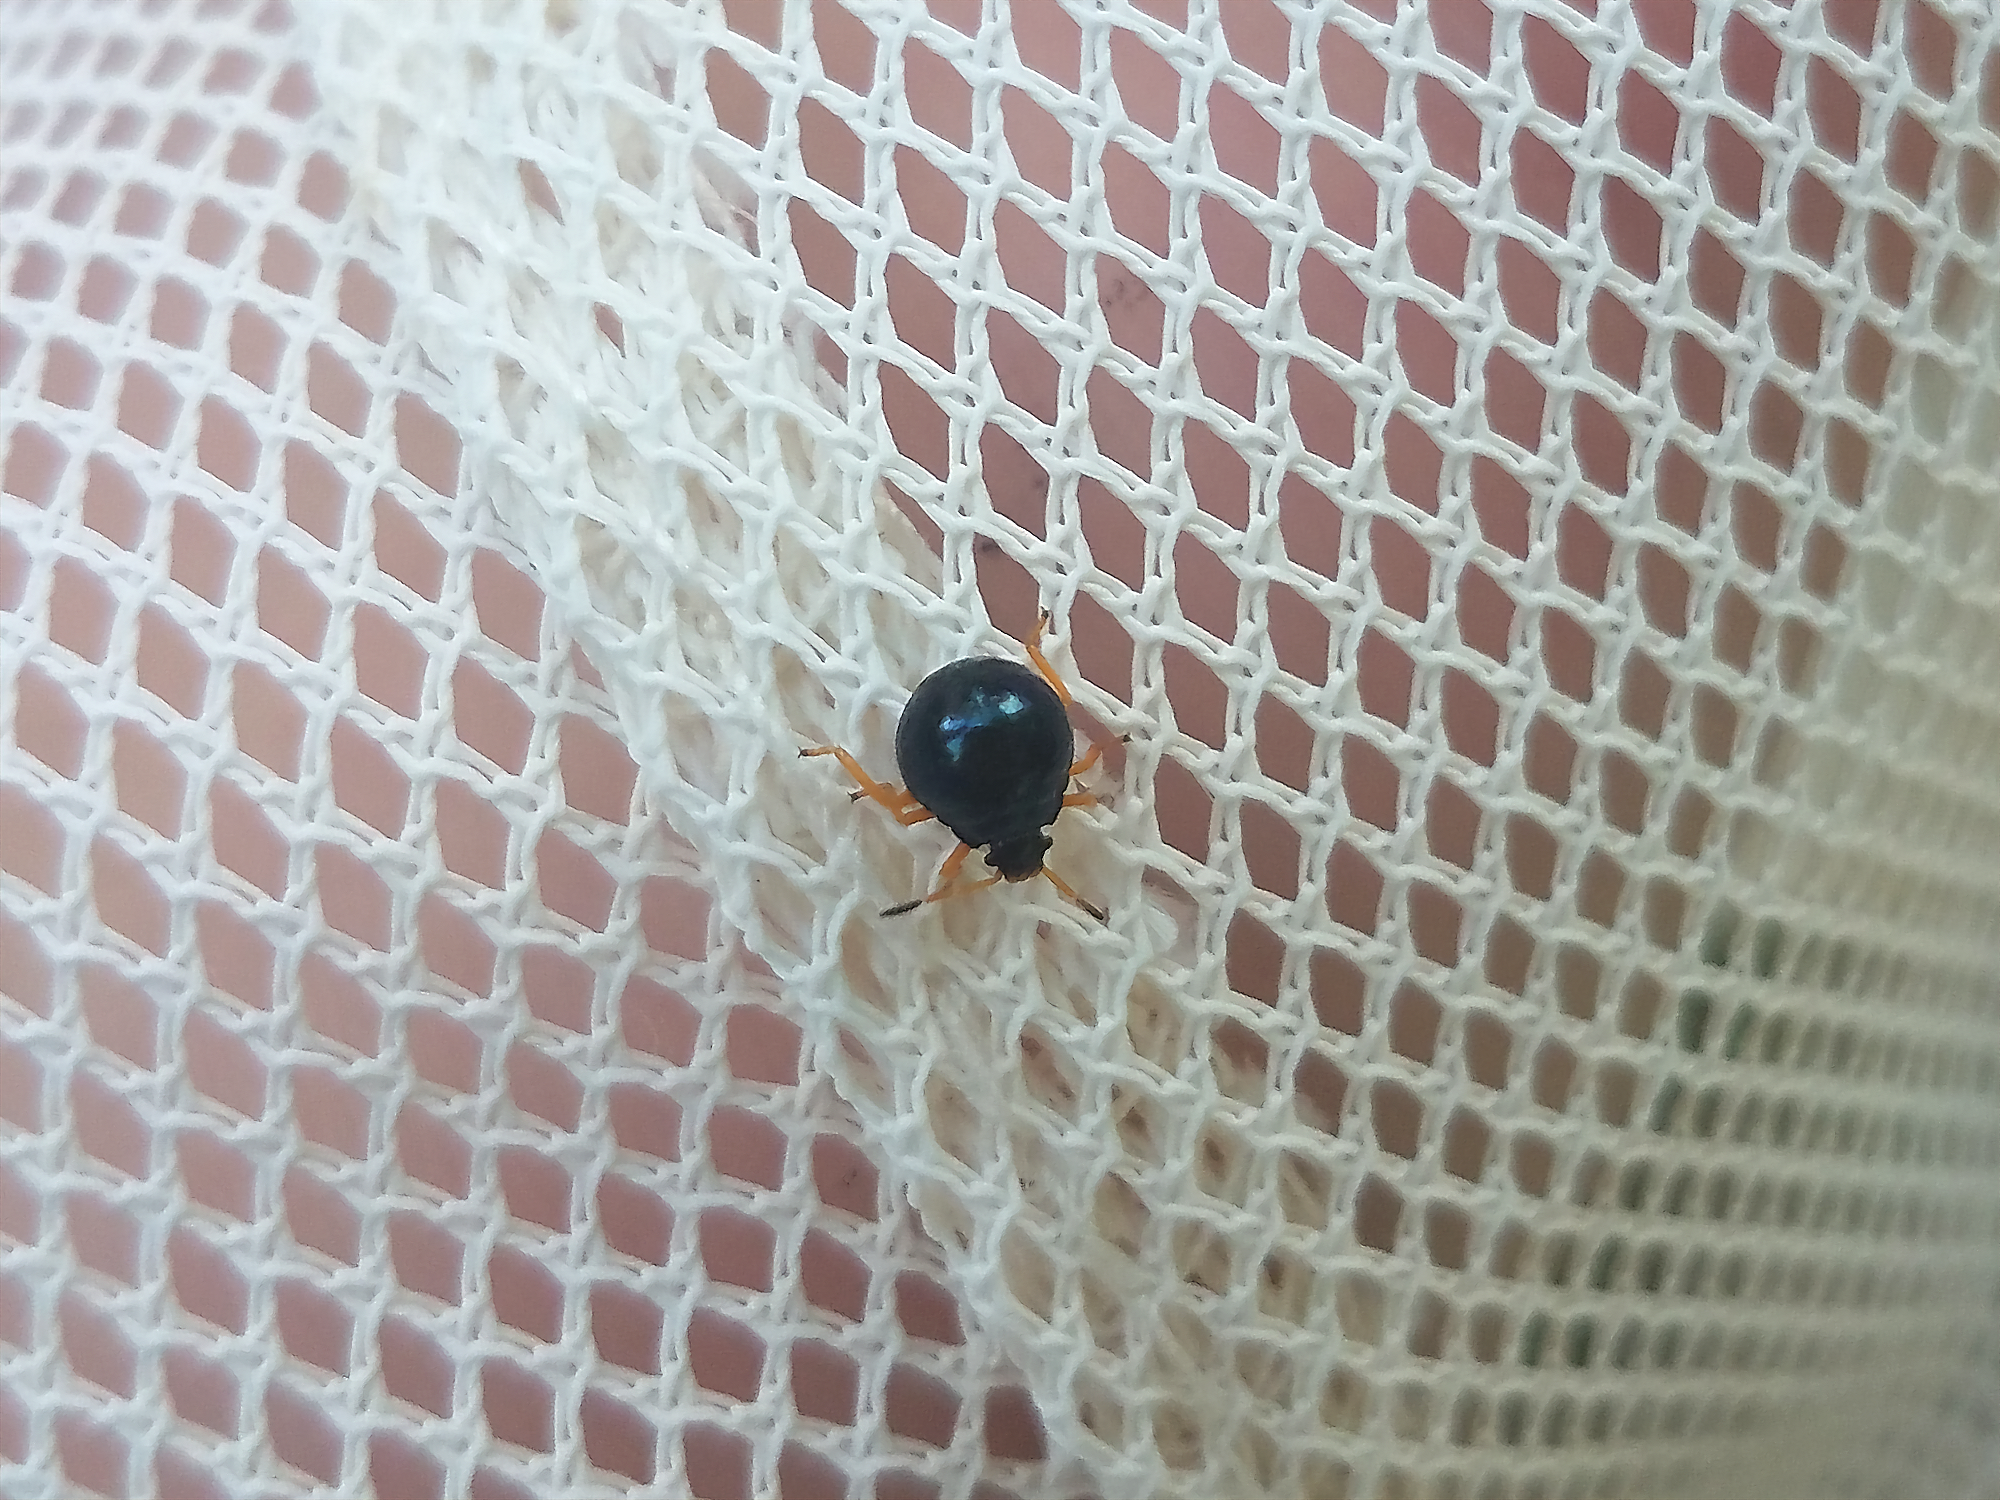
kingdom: Animalia
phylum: Arthropoda
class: Insecta
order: Hemiptera
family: Pentatomidae
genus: Stiretrus
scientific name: Stiretrus anchorago
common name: Anchor stink bug
